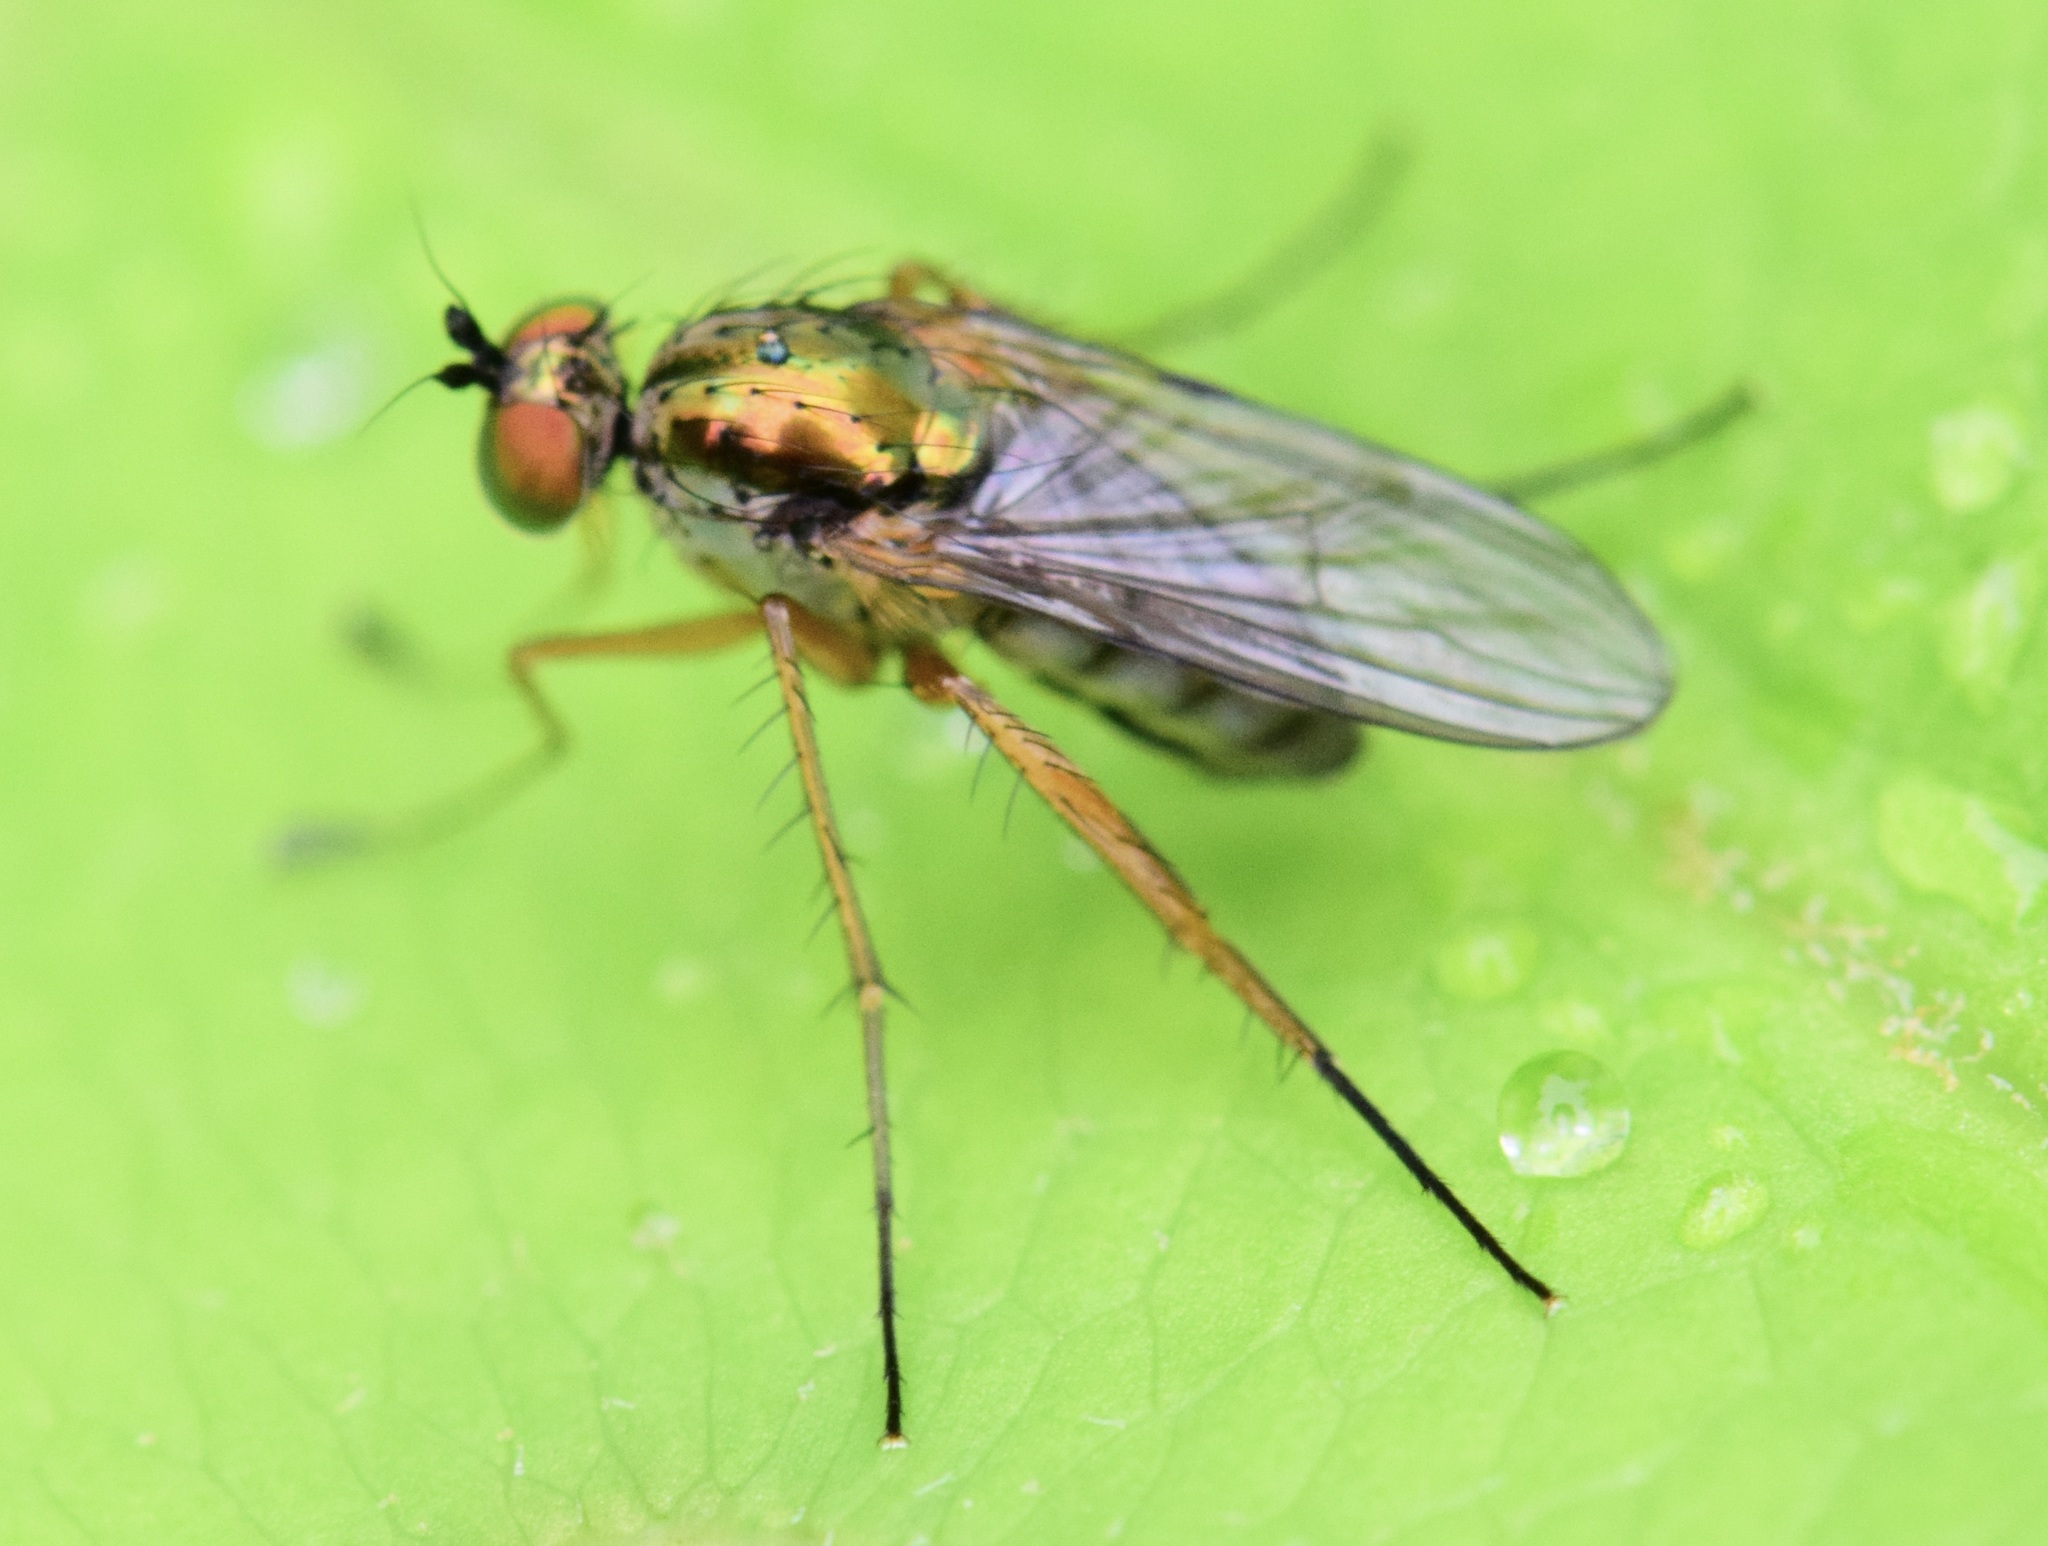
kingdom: Animalia
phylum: Arthropoda
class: Insecta
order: Diptera
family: Dolichopodidae
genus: Dolichopus
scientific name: Dolichopus
